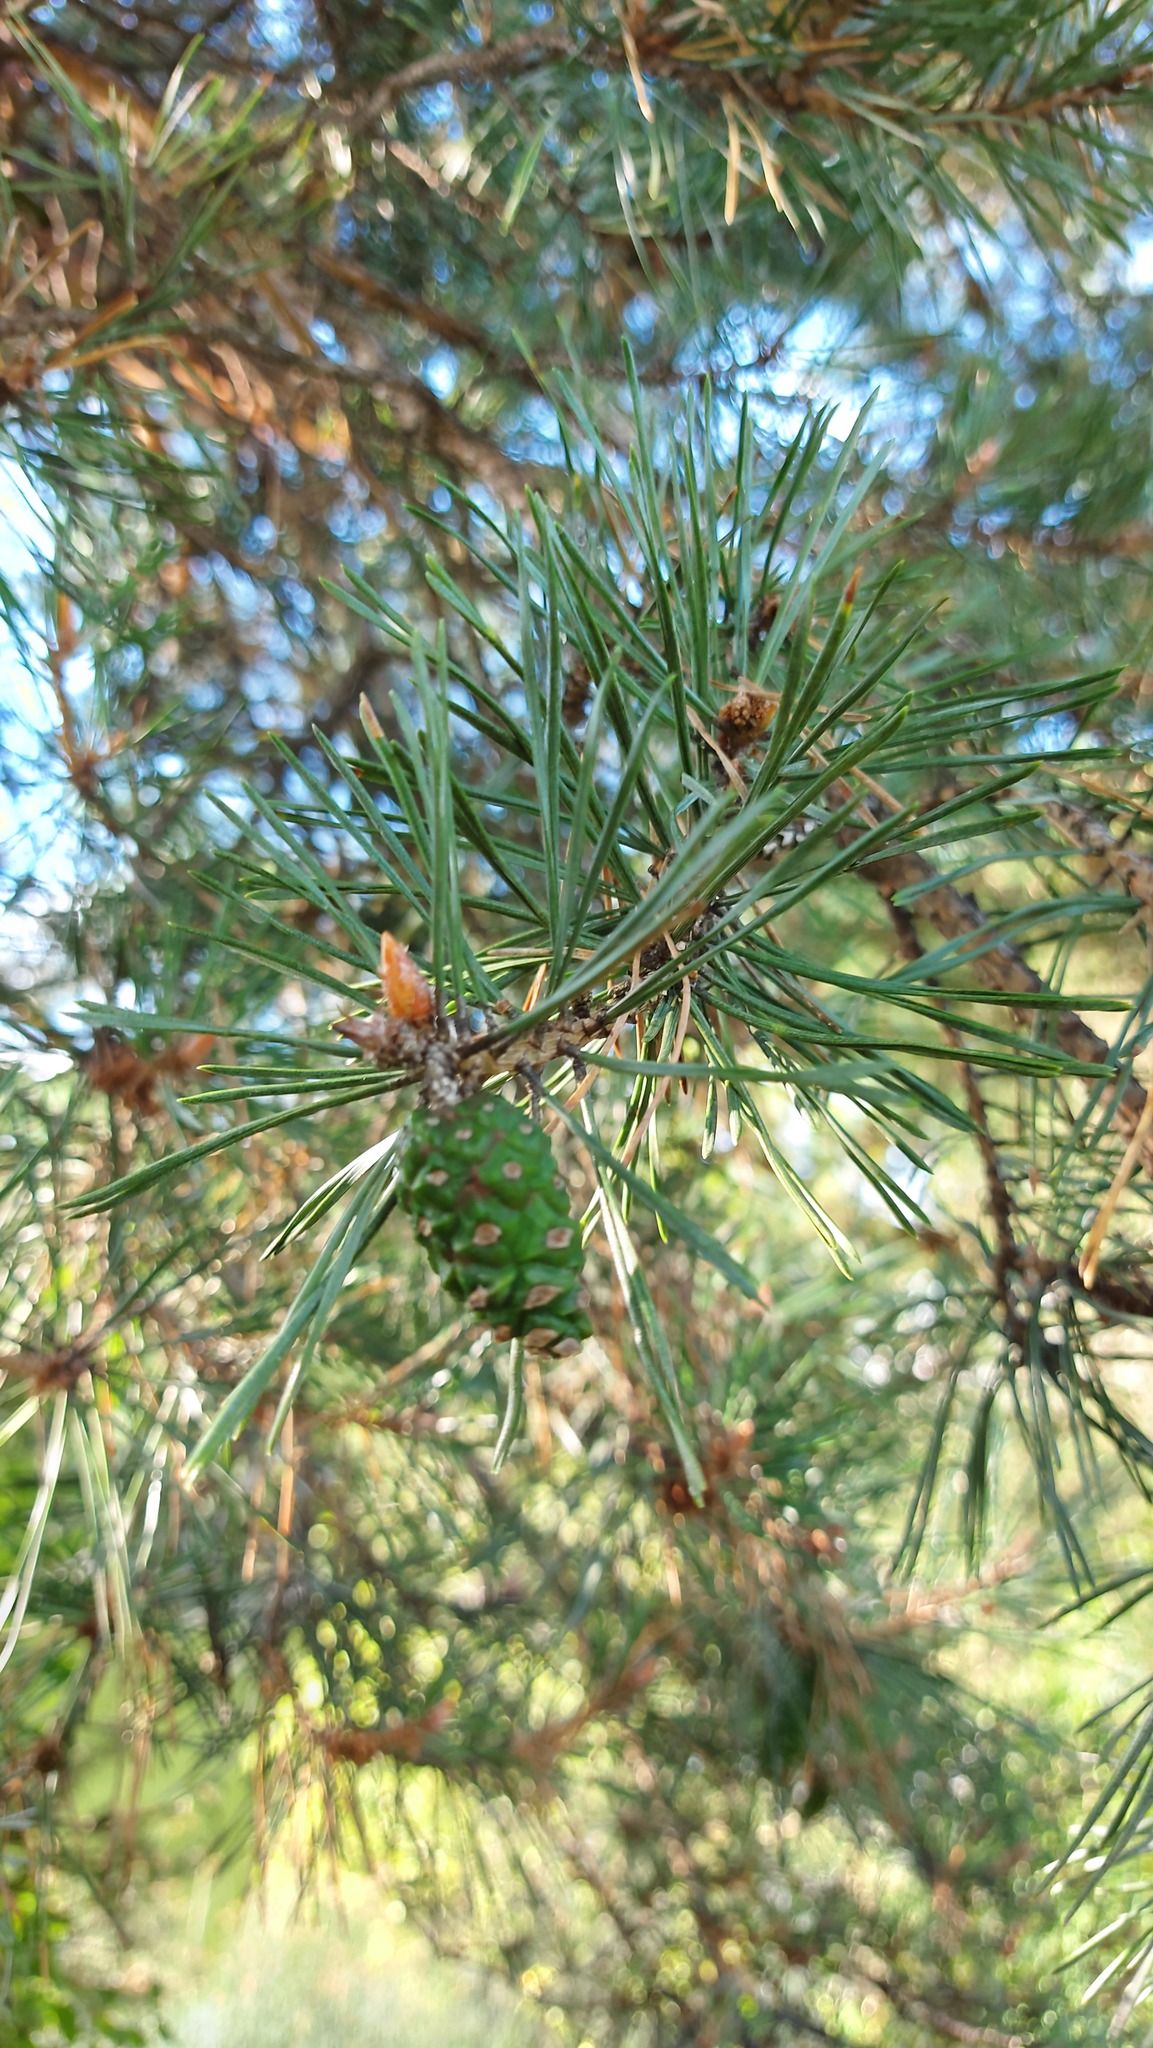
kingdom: Plantae
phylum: Tracheophyta
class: Pinopsida
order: Pinales
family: Pinaceae
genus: Pinus
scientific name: Pinus sylvestris
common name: Scots pine
